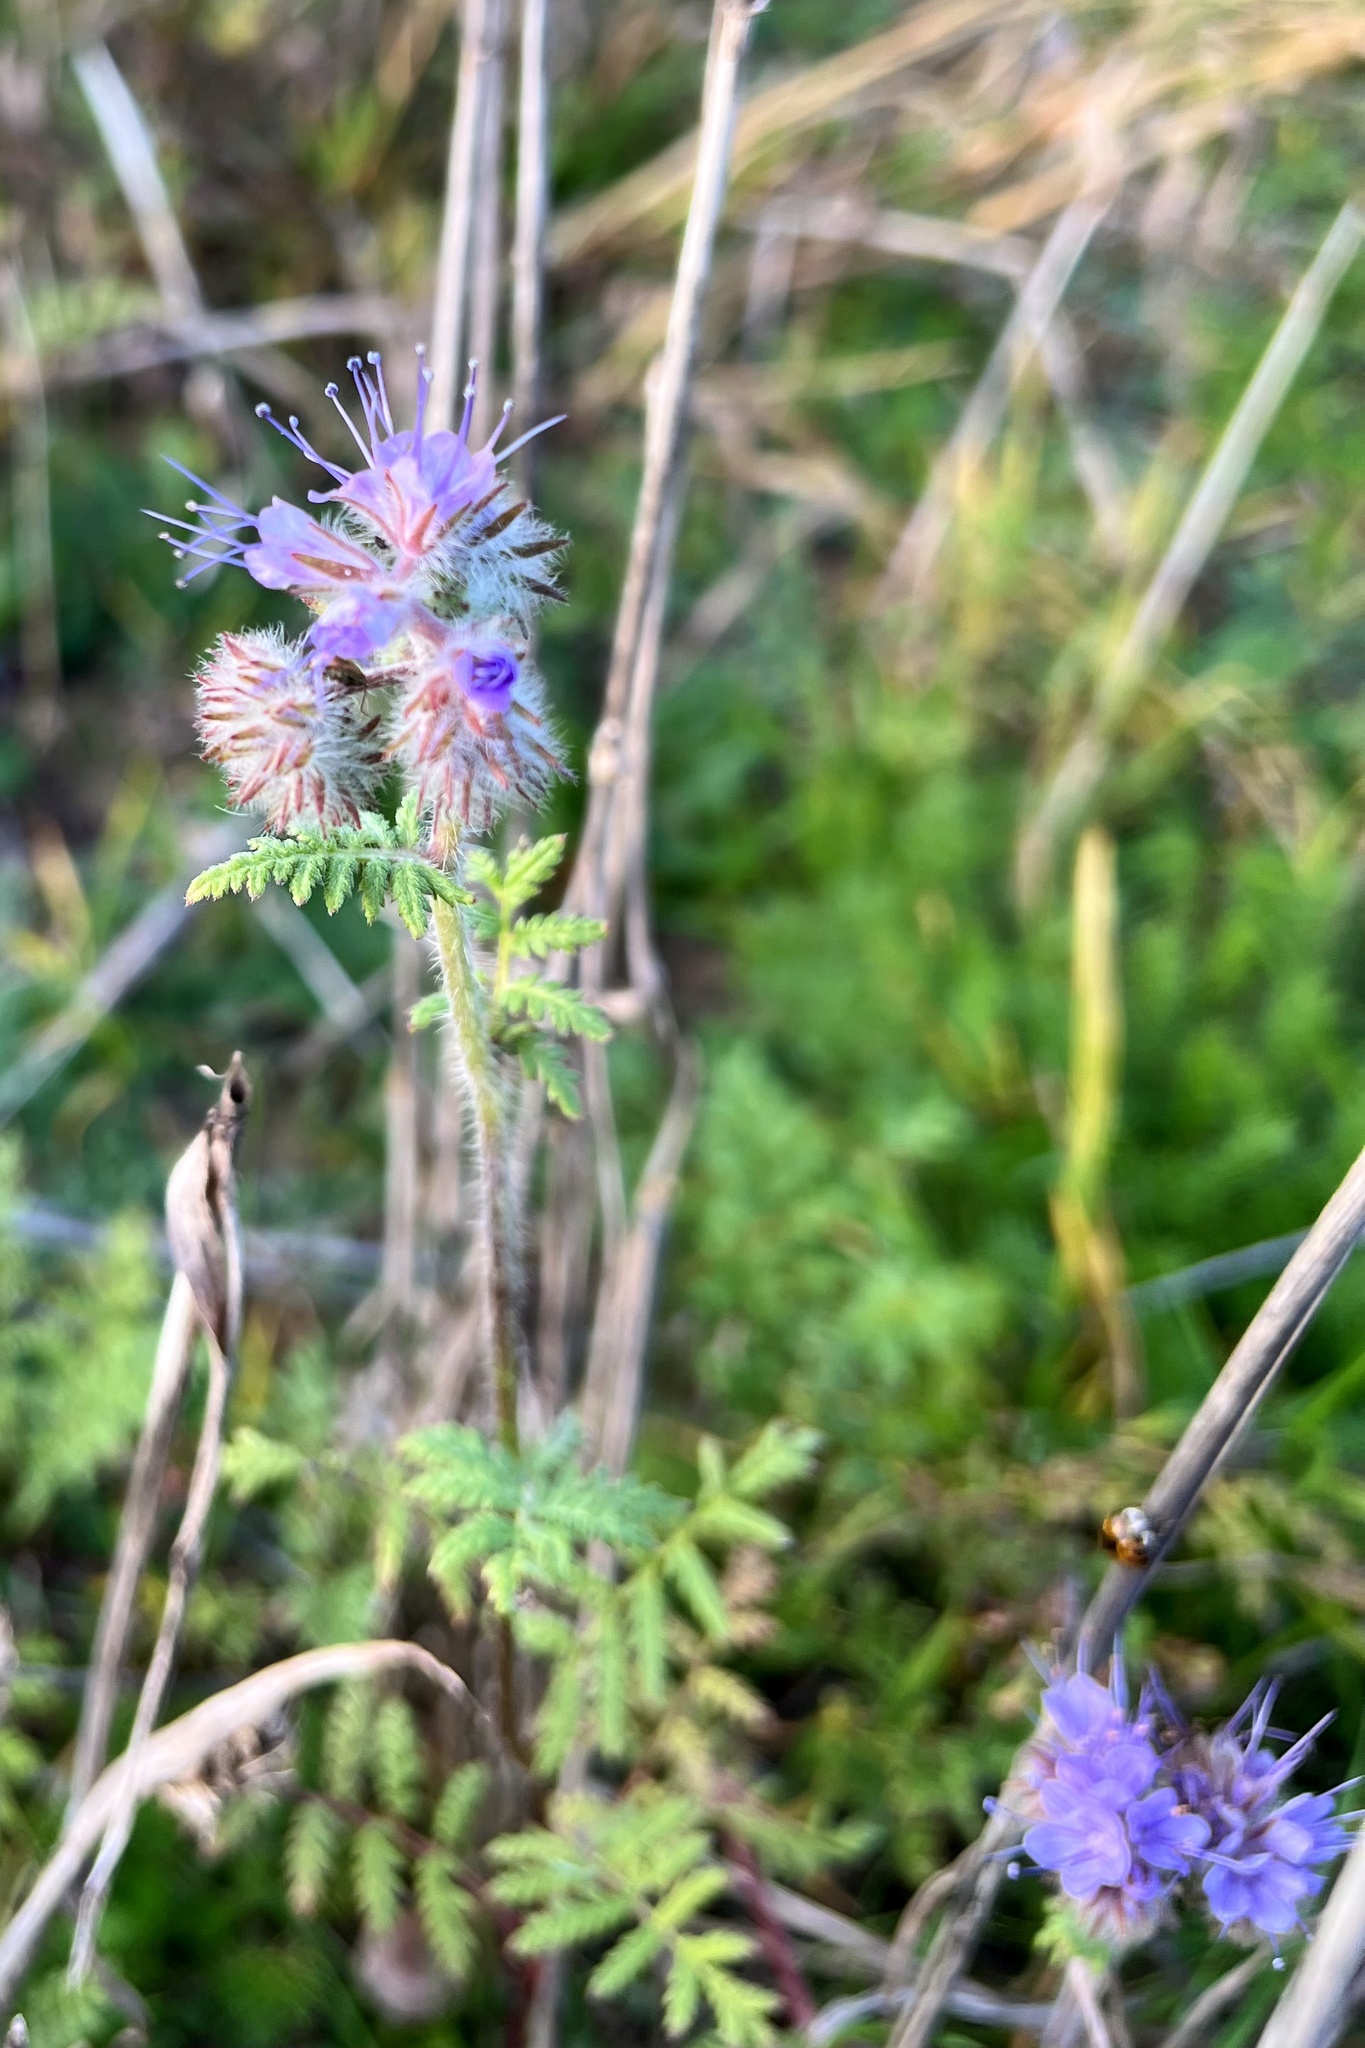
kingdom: Plantae
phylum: Tracheophyta
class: Magnoliopsida
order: Boraginales
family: Hydrophyllaceae
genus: Phacelia
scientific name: Phacelia tanacetifolia
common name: Phacelia
